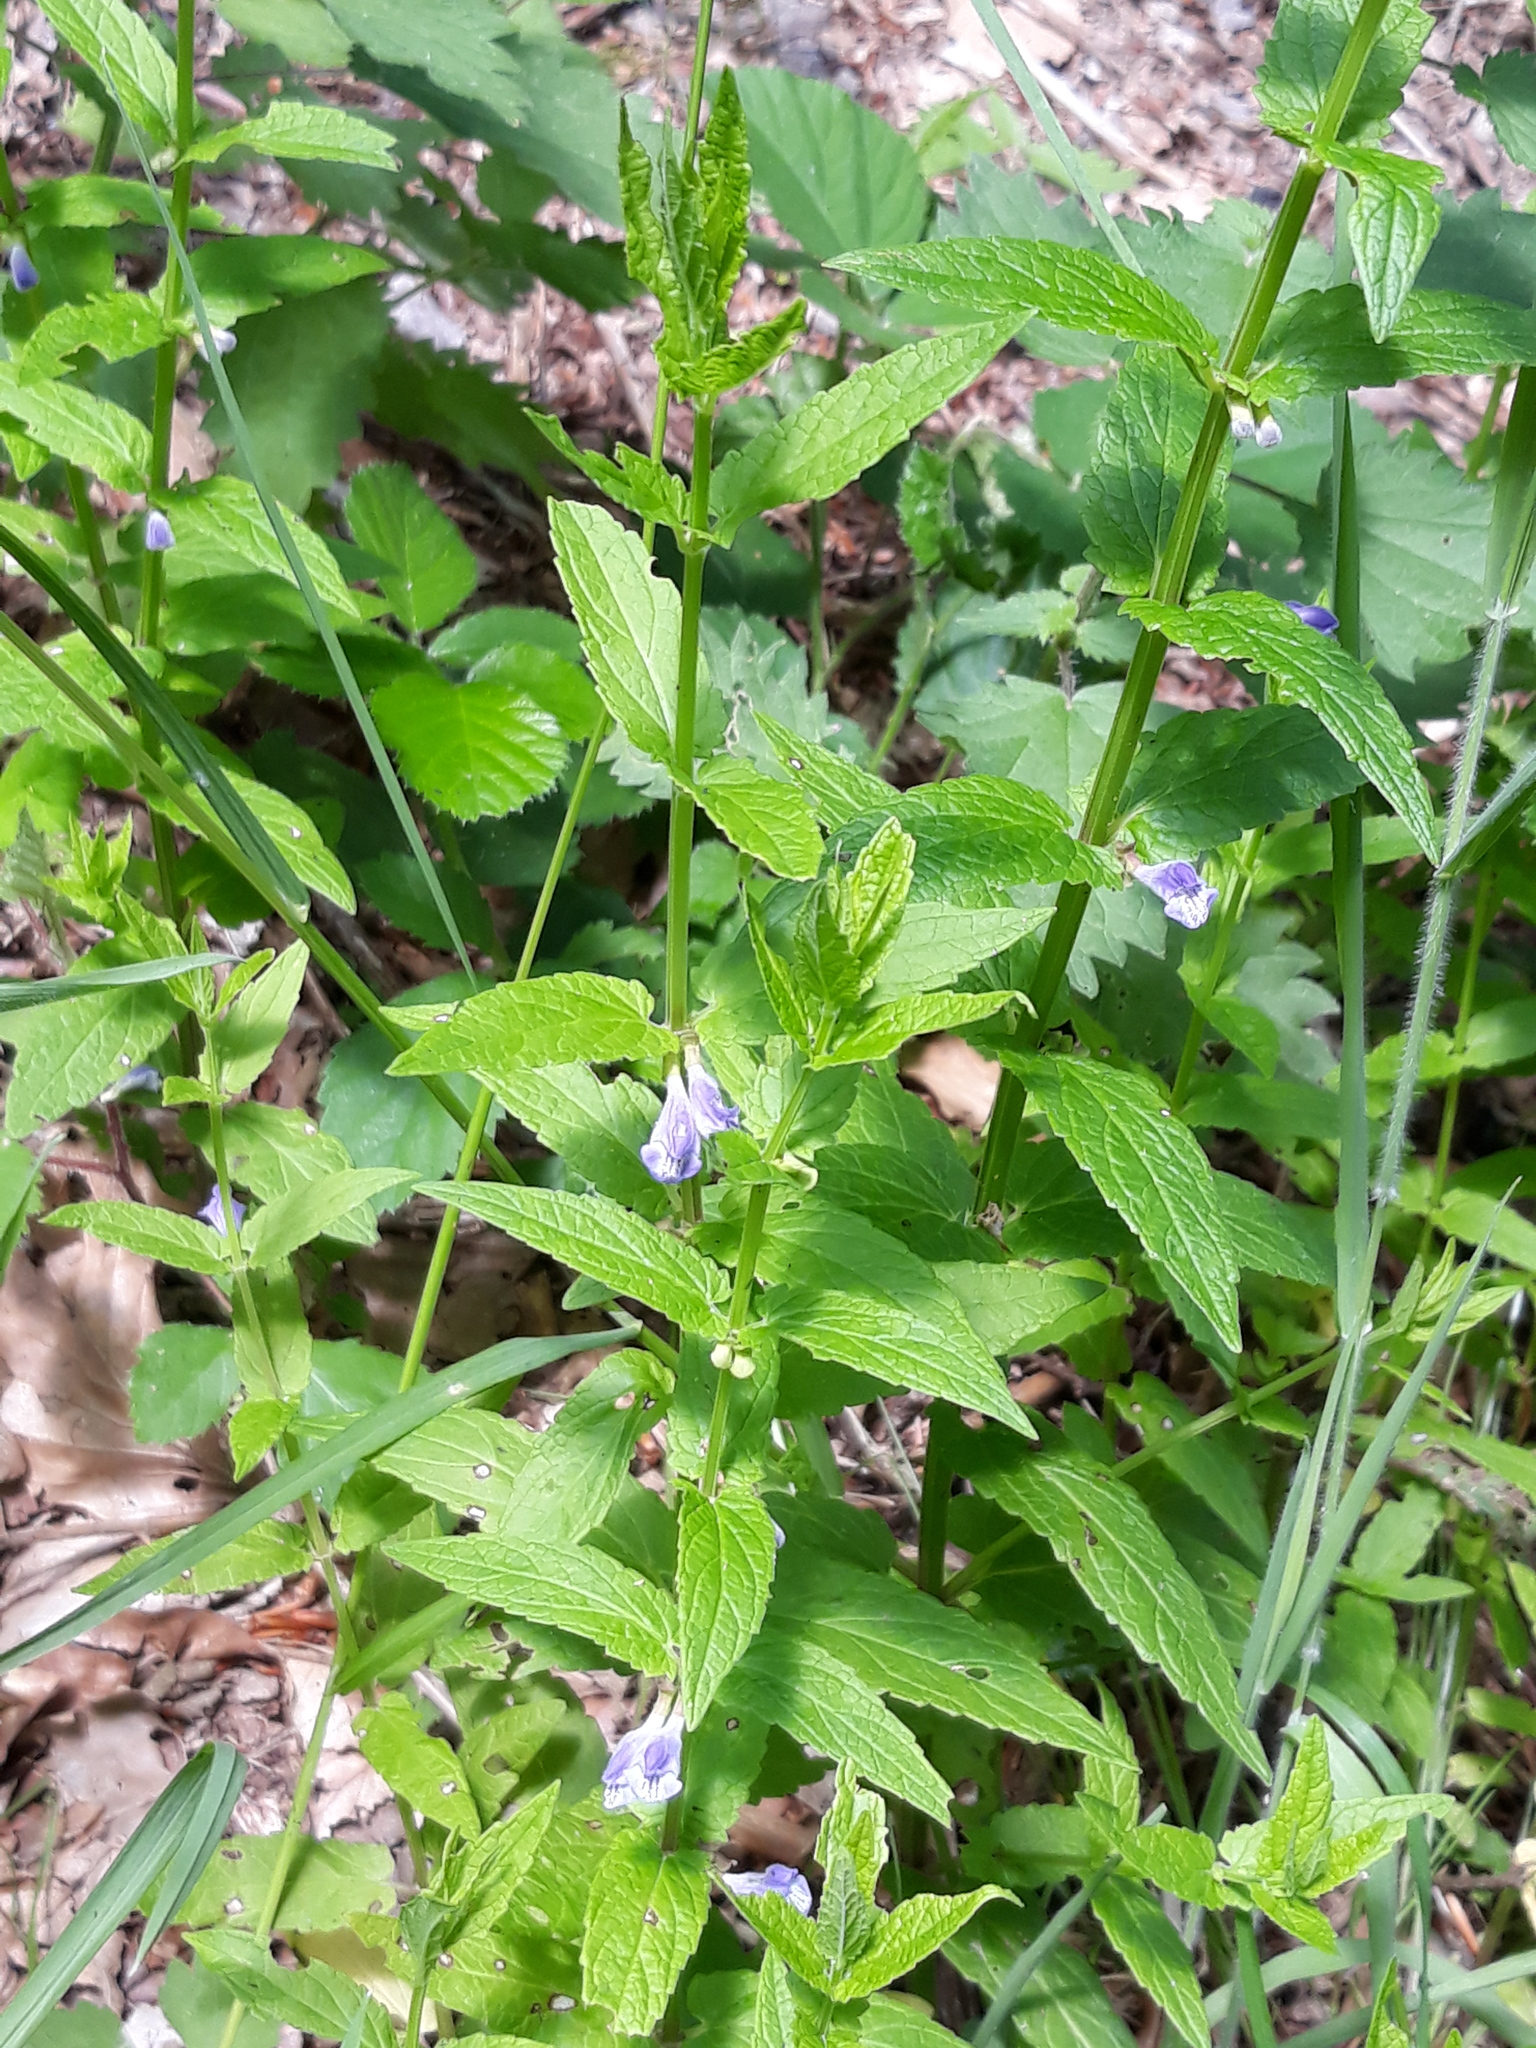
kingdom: Plantae
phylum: Tracheophyta
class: Magnoliopsida
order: Lamiales
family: Lamiaceae
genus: Scutellaria
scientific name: Scutellaria galericulata
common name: Skullcap
